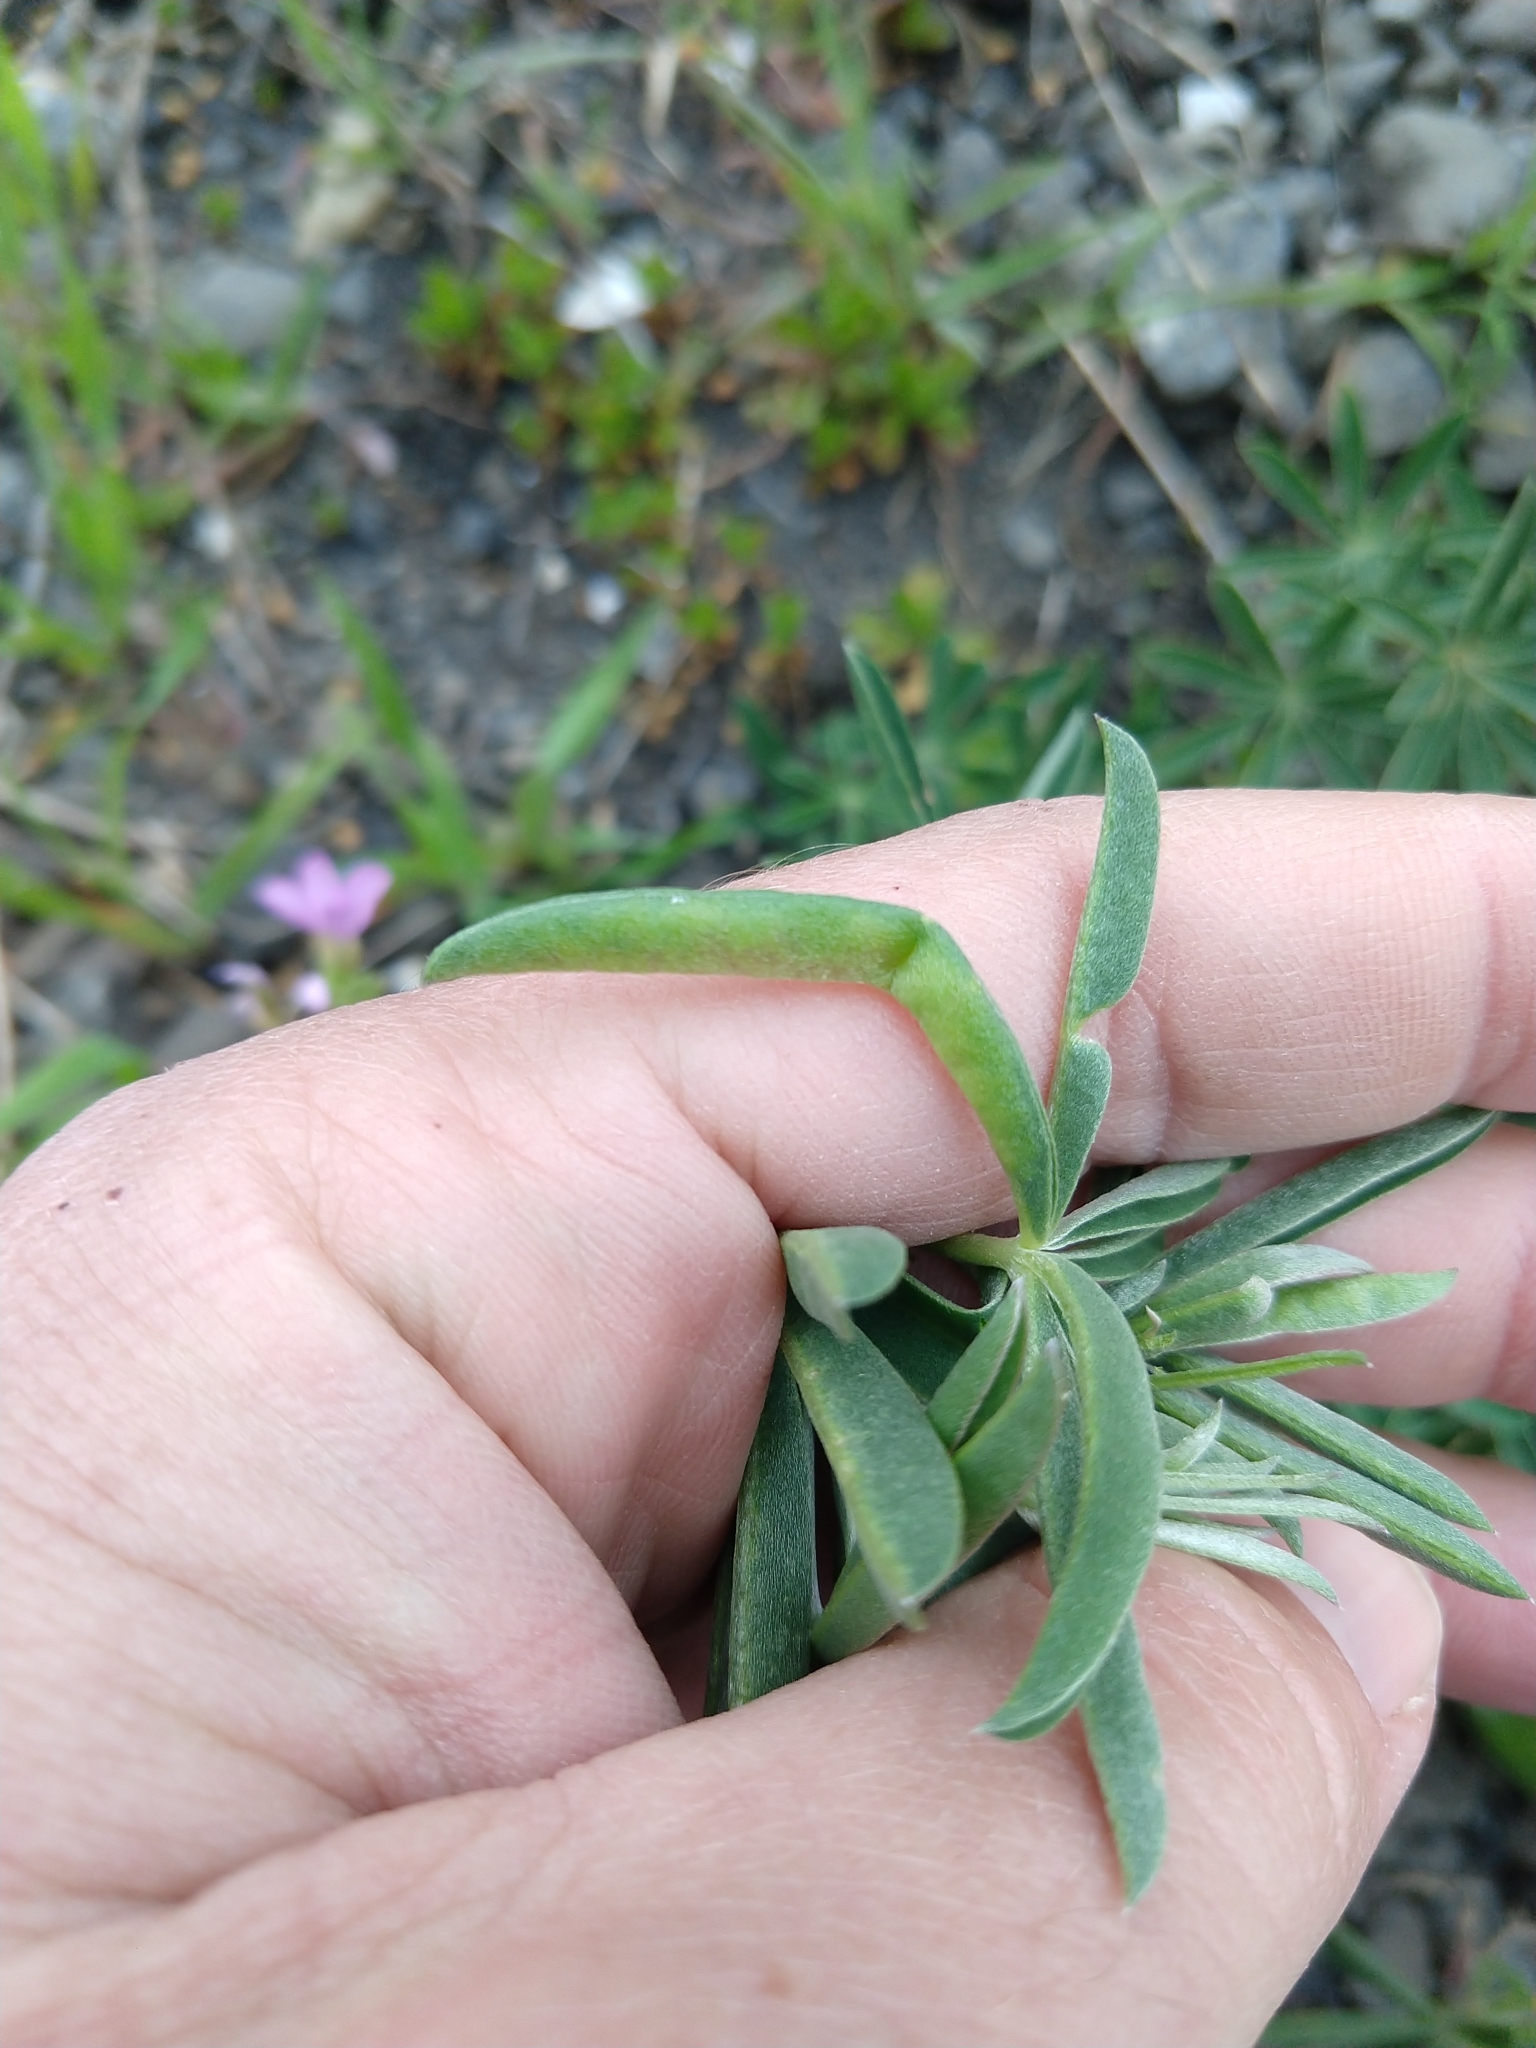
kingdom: Animalia
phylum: Arthropoda
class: Insecta
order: Diptera
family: Cecidomyiidae
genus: Dasineura
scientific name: Dasineura lupinorum
